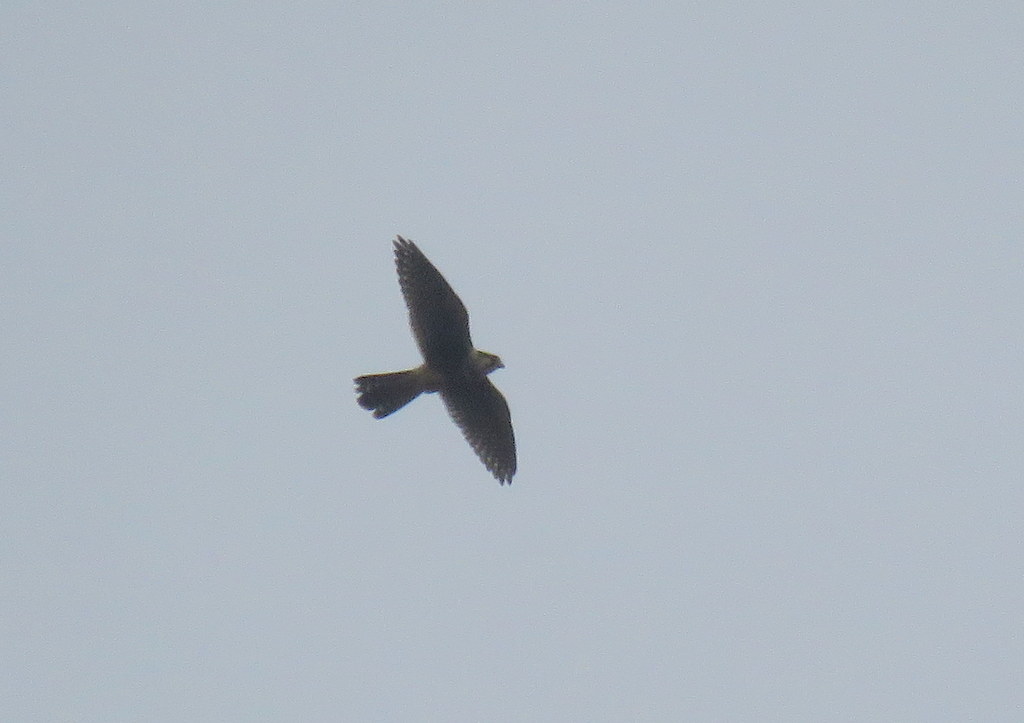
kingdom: Animalia
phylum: Chordata
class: Aves
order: Falconiformes
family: Falconidae
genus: Falco
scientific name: Falco femoralis
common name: Aplomado falcon
